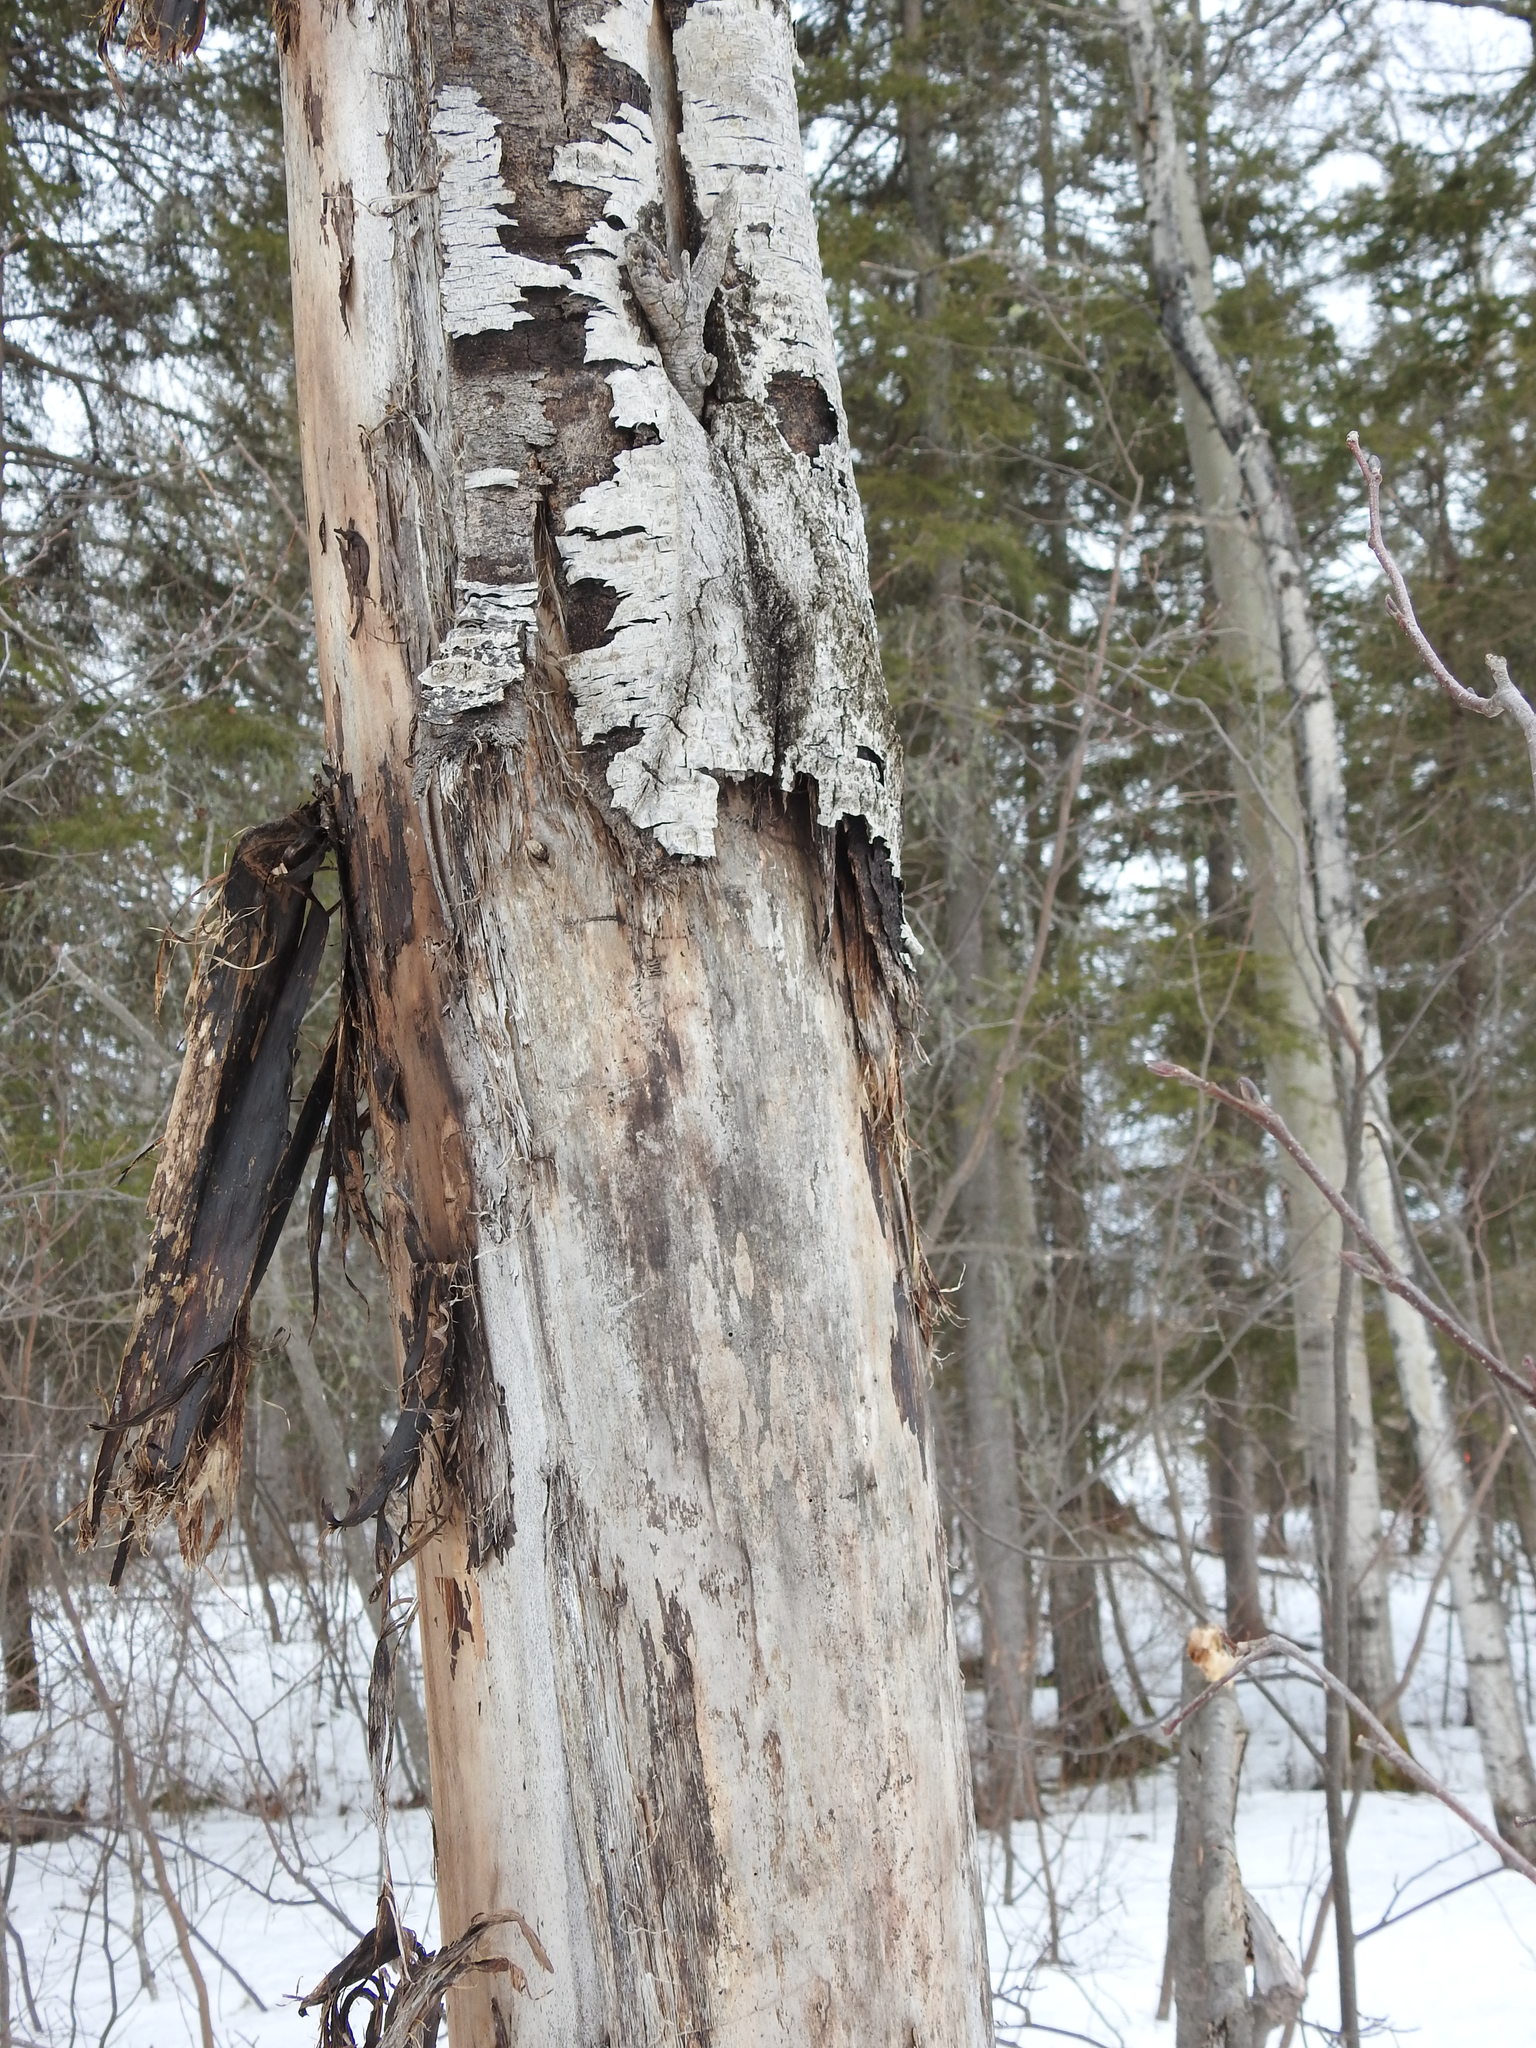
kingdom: Plantae
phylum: Tracheophyta
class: Magnoliopsida
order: Malpighiales
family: Salicaceae
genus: Populus
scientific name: Populus tremuloides
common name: Quaking aspen
